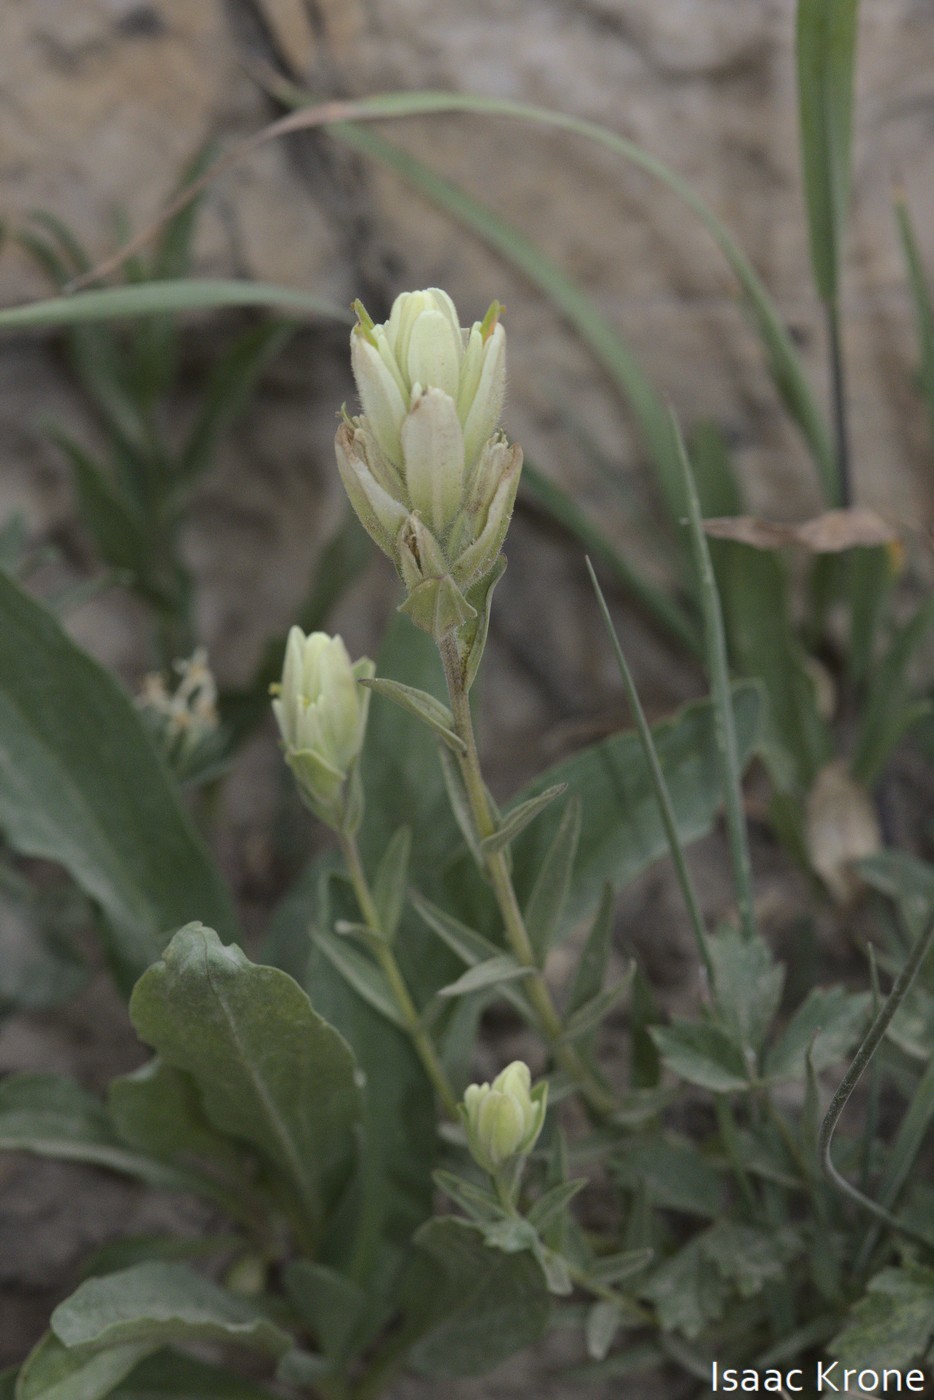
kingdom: Plantae
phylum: Tracheophyta
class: Magnoliopsida
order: Lamiales
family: Orobanchaceae
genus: Castilleja
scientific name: Castilleja occidentalis
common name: Western paintbrush
